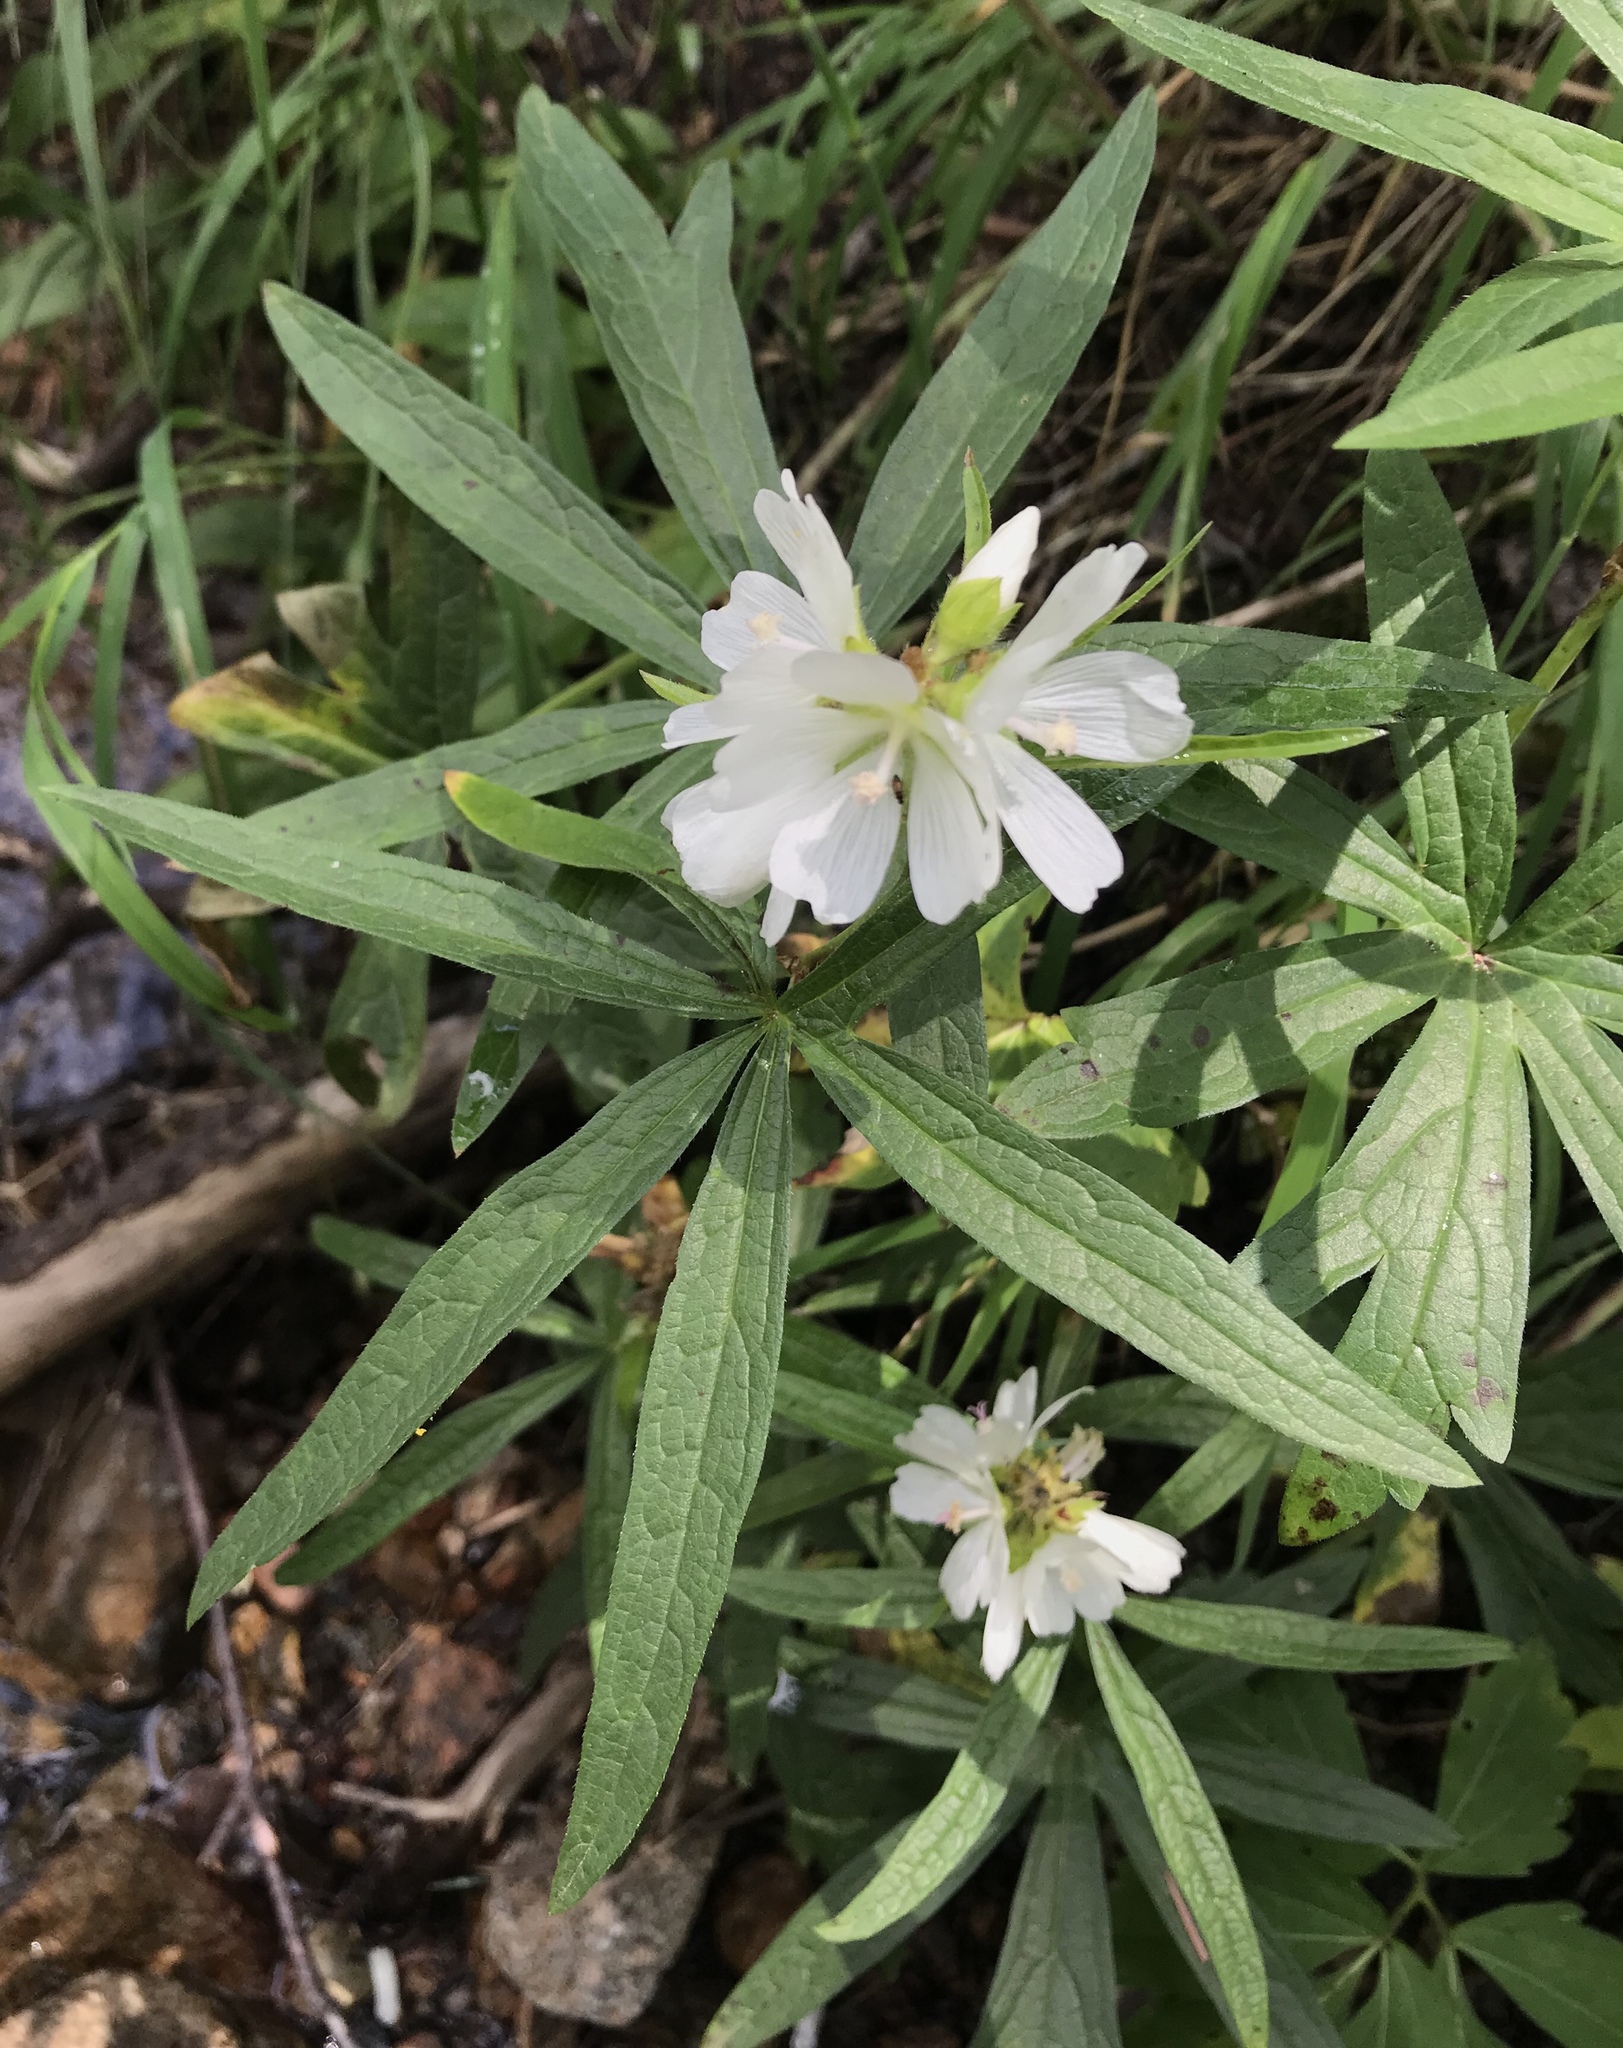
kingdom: Plantae
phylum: Tracheophyta
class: Magnoliopsida
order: Malvales
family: Malvaceae
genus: Sidalcea
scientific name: Sidalcea candida
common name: Prairie-mallow
